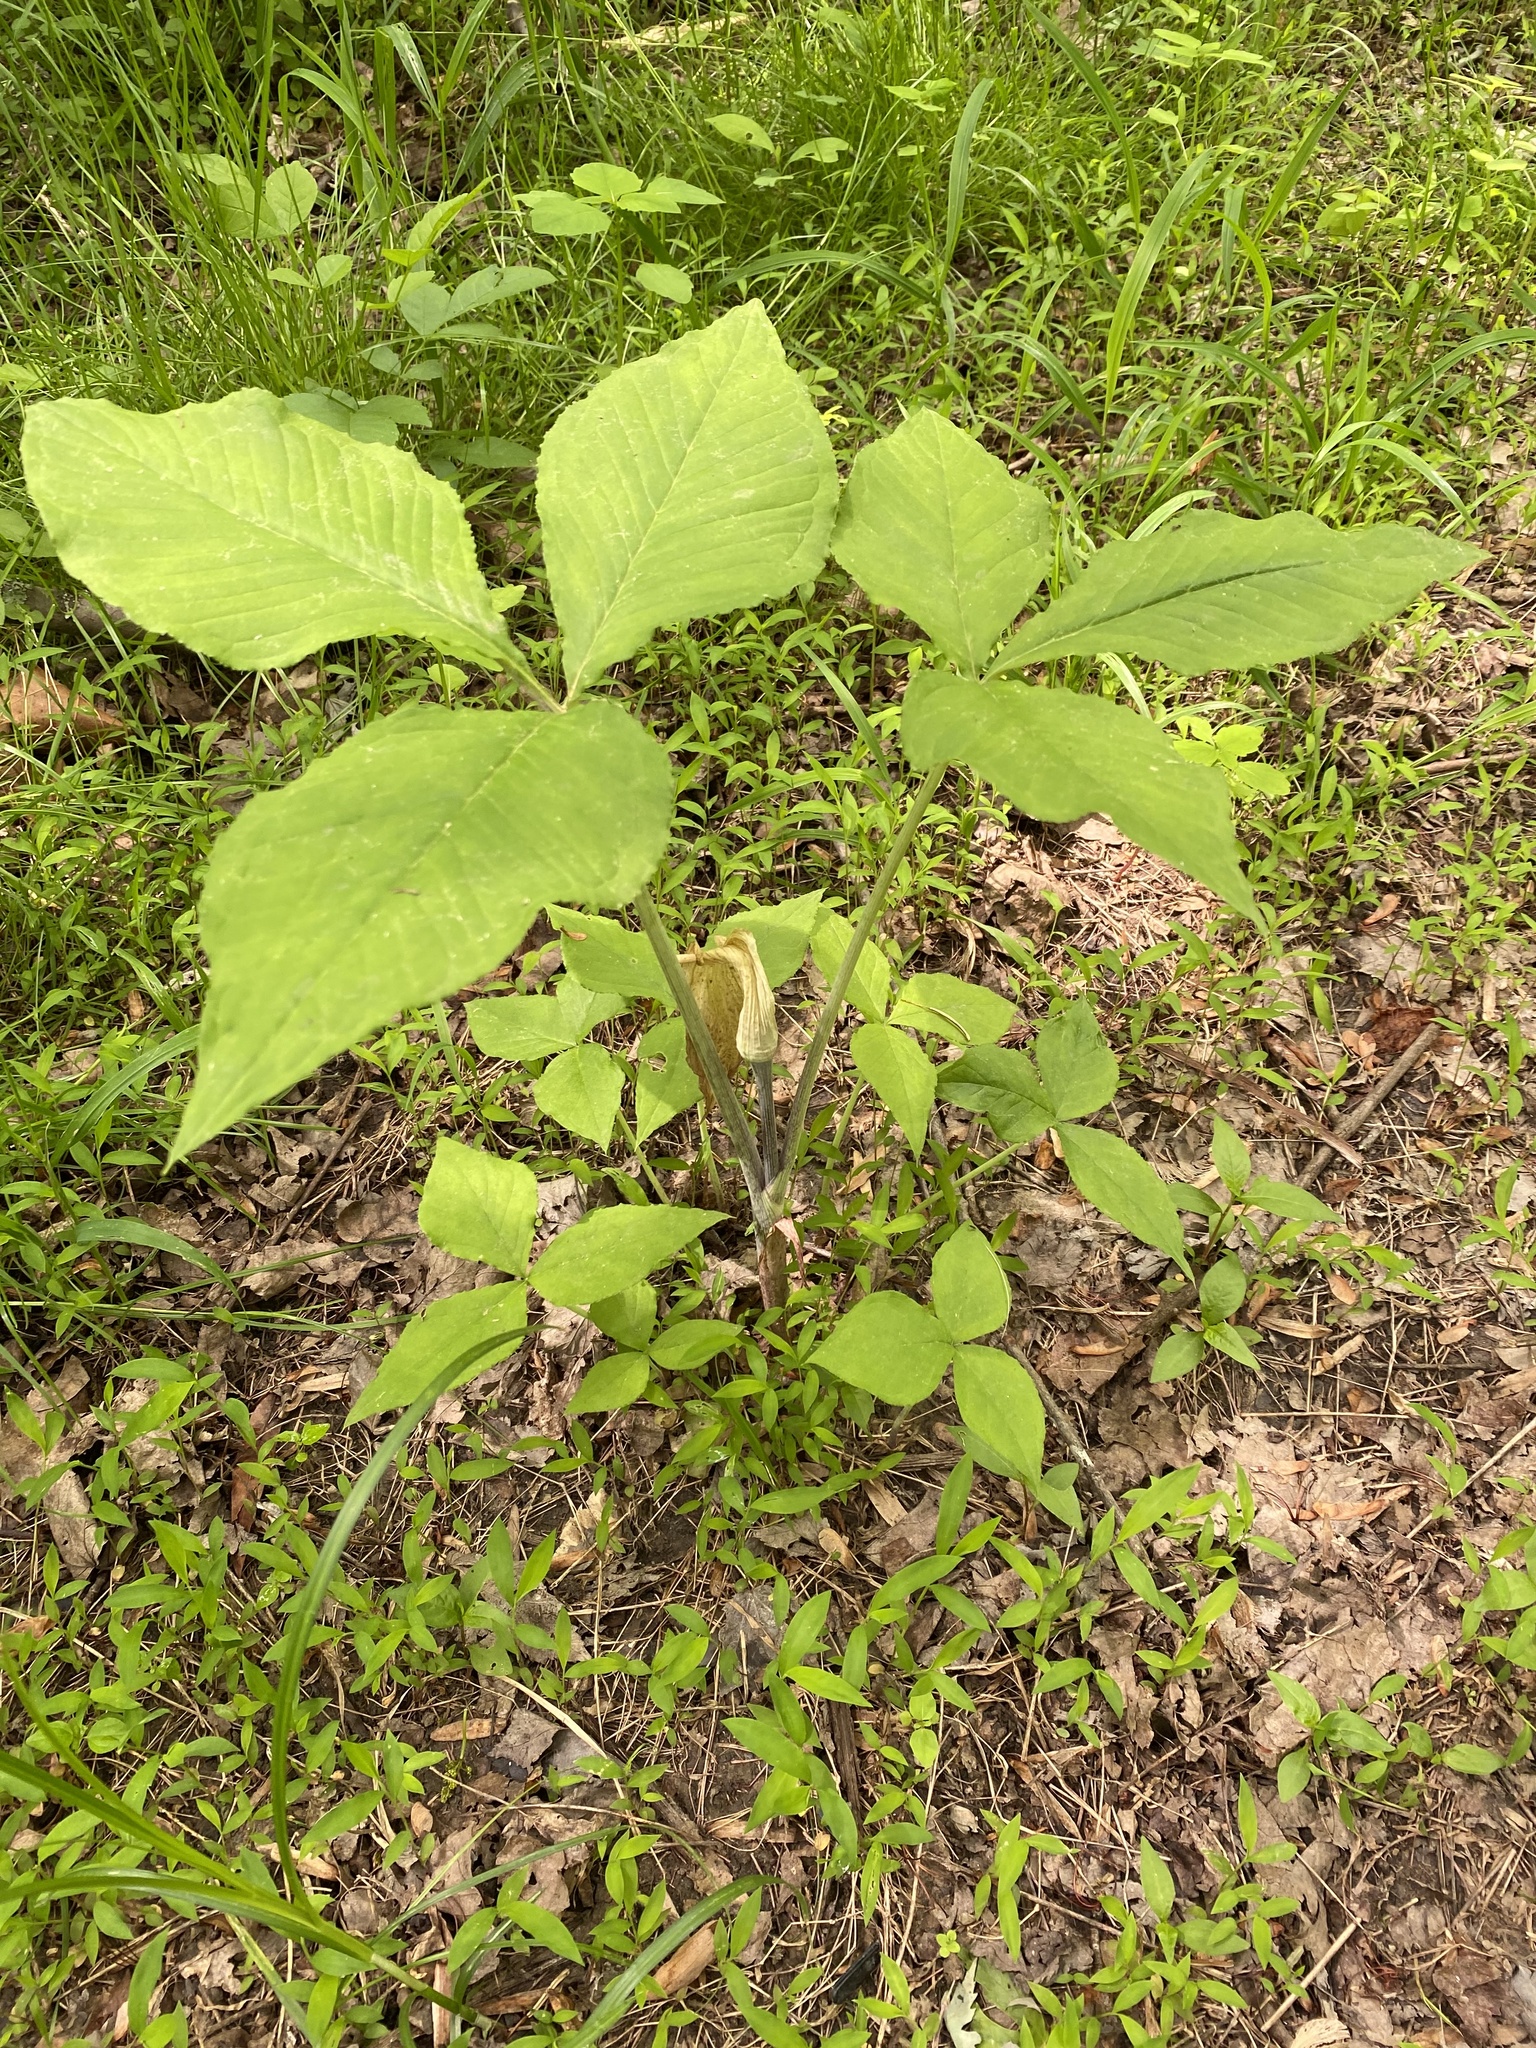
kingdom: Plantae
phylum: Tracheophyta
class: Liliopsida
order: Alismatales
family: Araceae
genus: Arisaema
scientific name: Arisaema triphyllum
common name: Jack-in-the-pulpit
